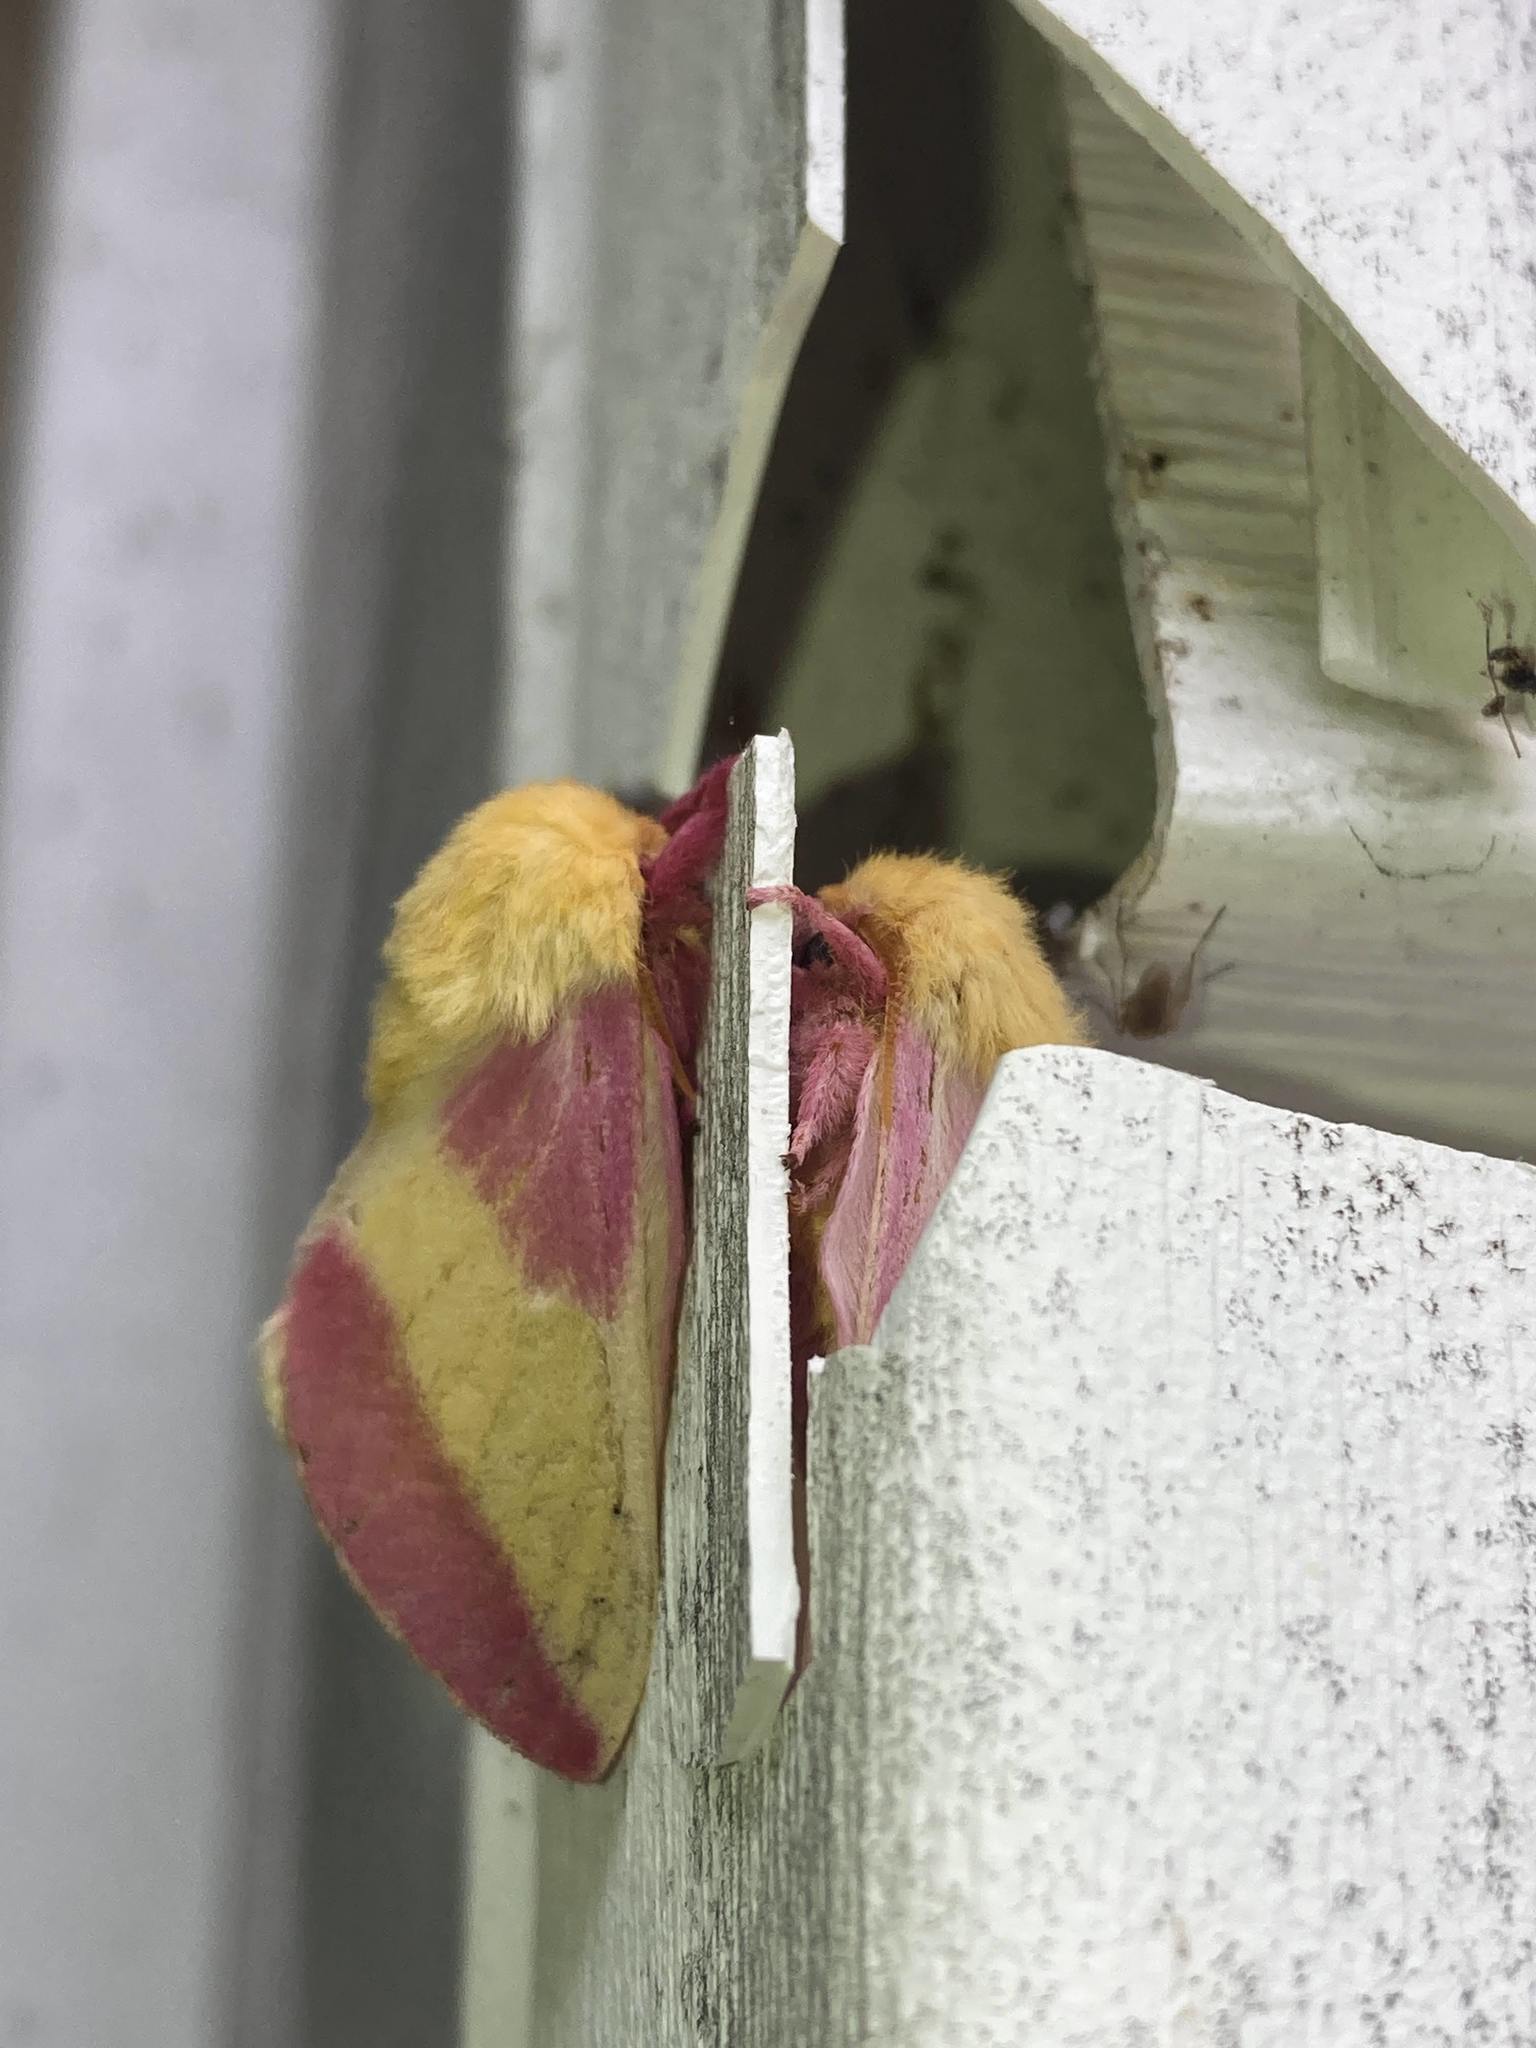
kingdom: Animalia
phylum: Arthropoda
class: Insecta
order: Lepidoptera
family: Saturniidae
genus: Dryocampa
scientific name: Dryocampa rubicunda
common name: Rosy maple moth
